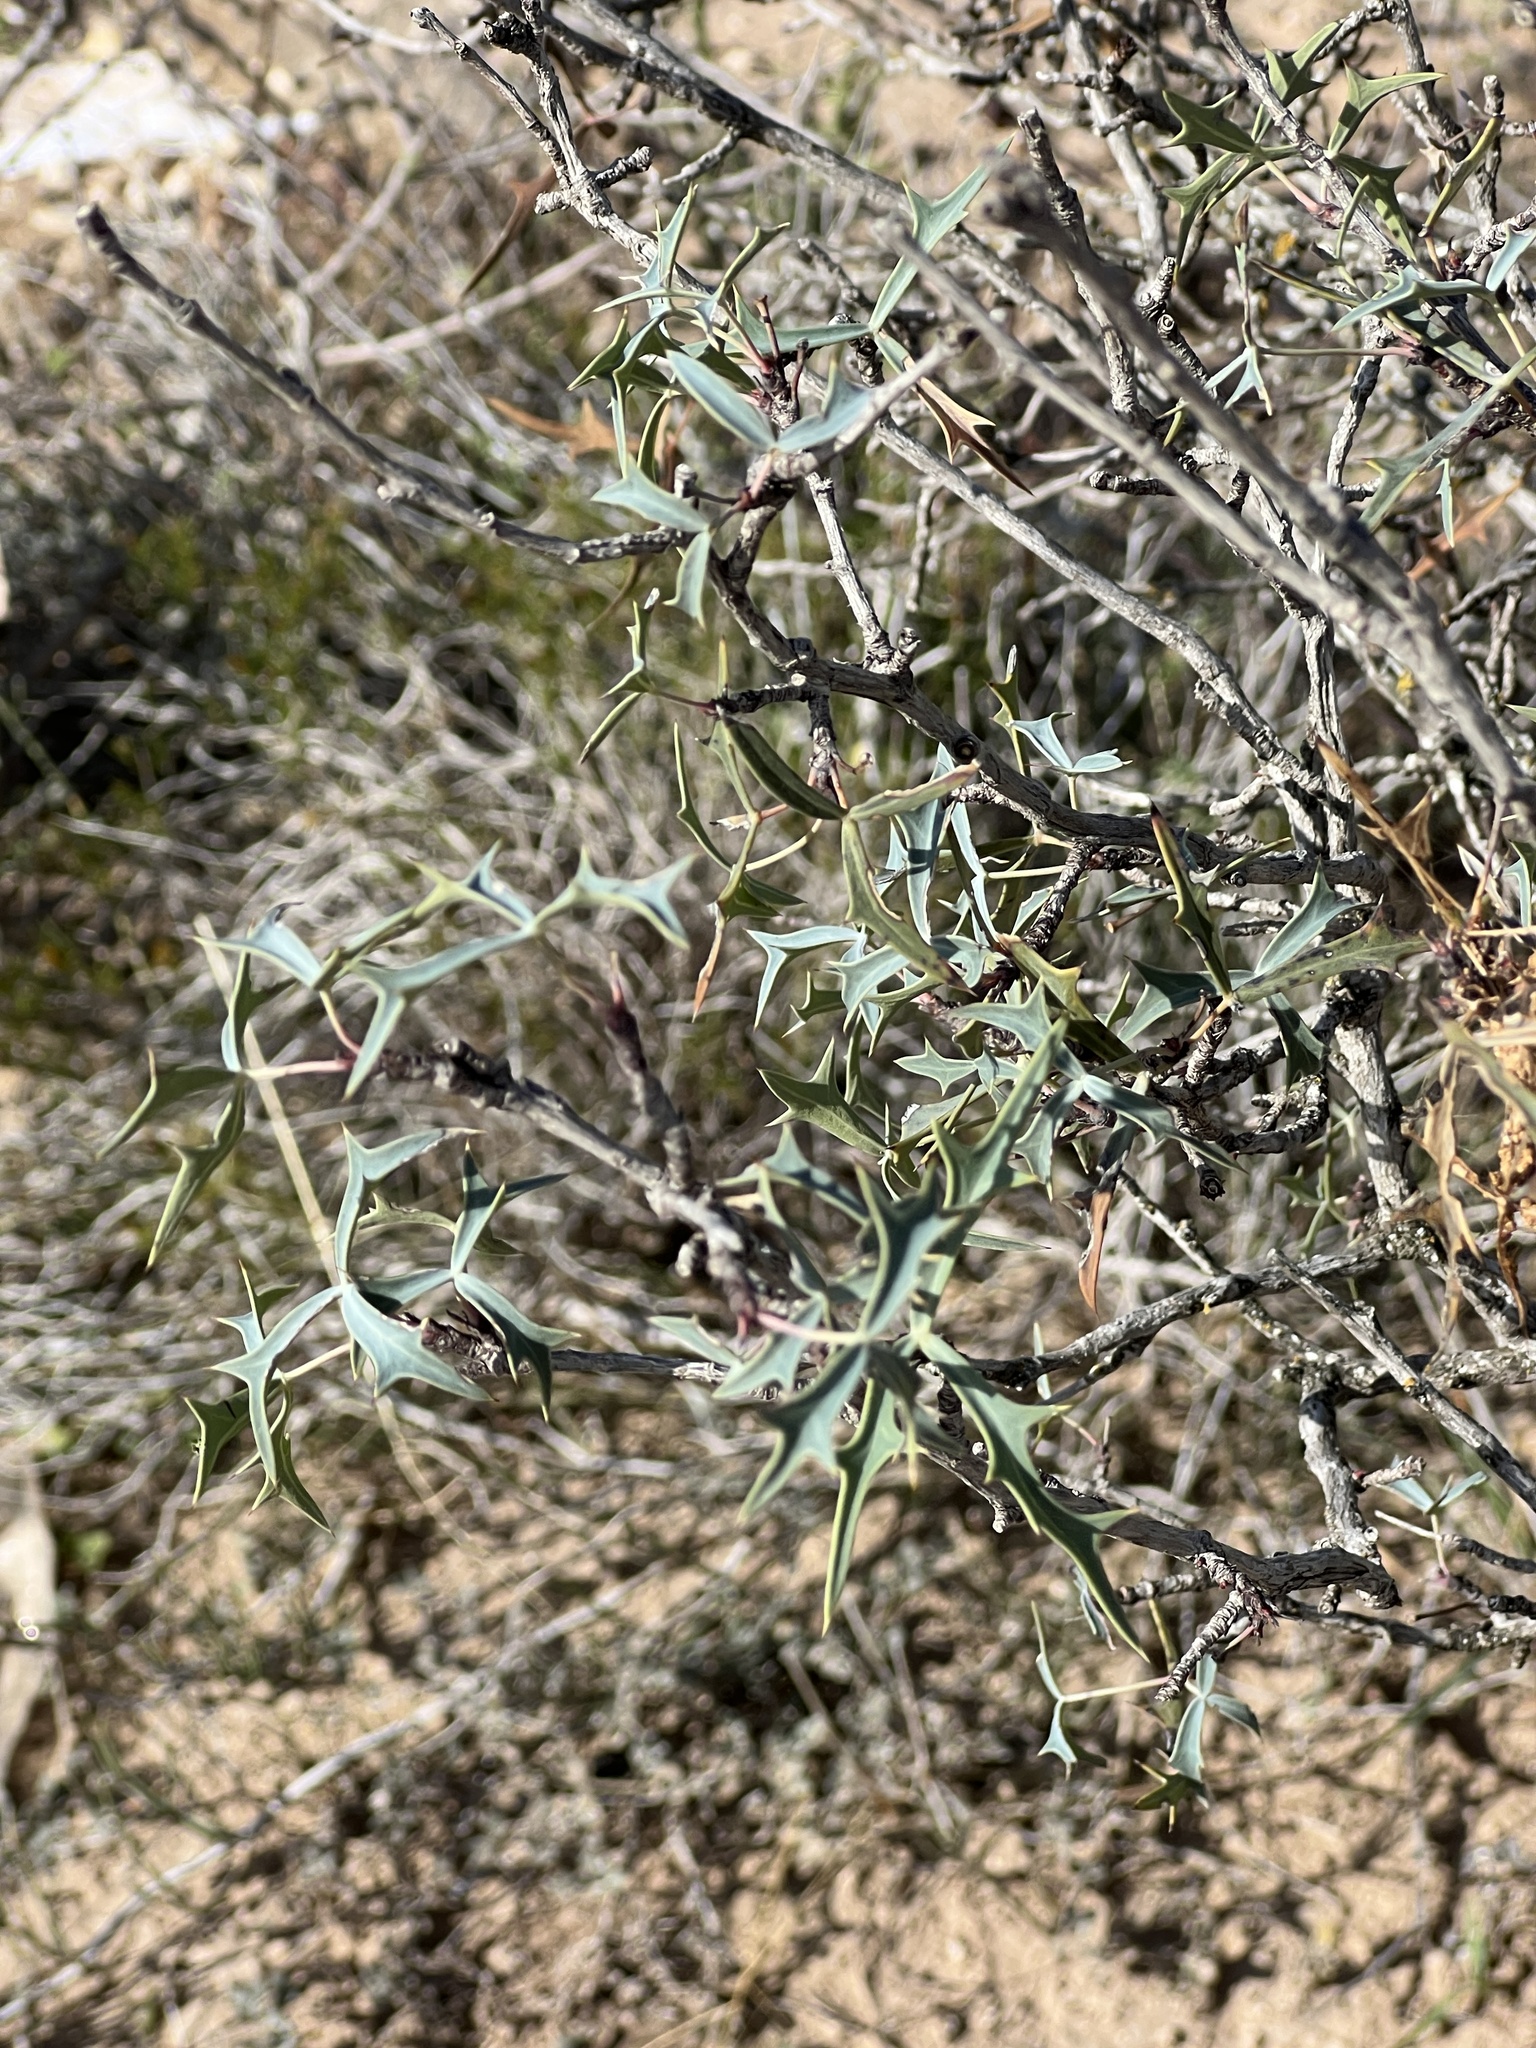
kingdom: Plantae
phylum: Tracheophyta
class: Magnoliopsida
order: Ranunculales
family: Berberidaceae
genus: Alloberberis
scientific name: Alloberberis trifoliolata
